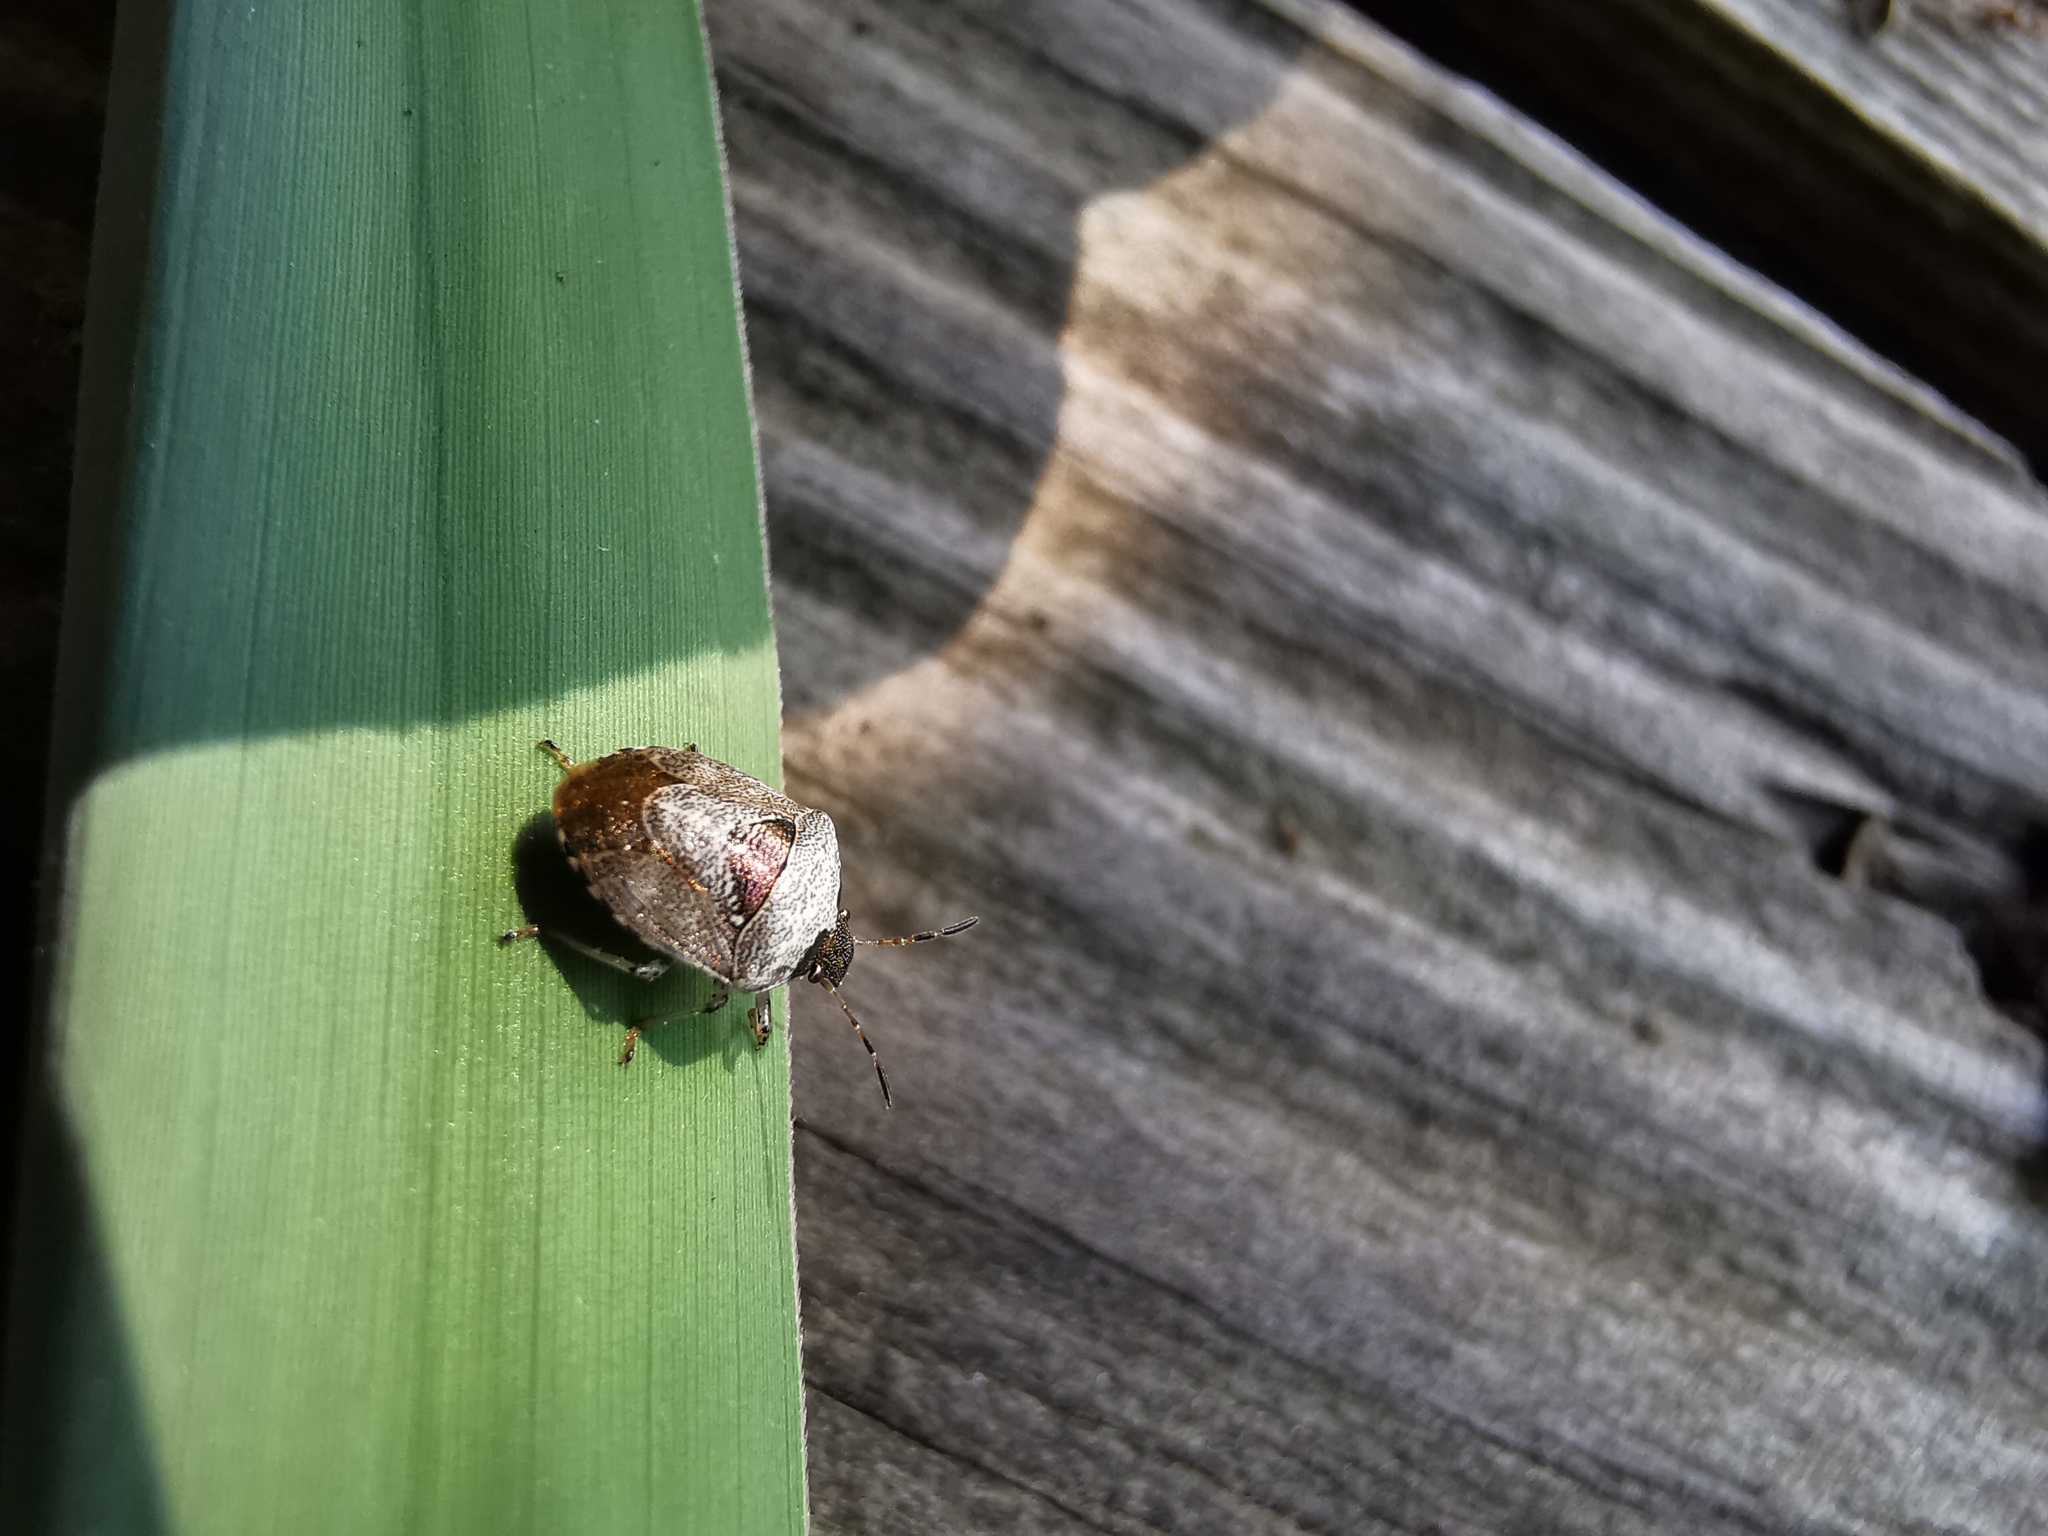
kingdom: Animalia
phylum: Arthropoda
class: Insecta
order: Hemiptera
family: Pentatomidae
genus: Eysarcoris
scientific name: Eysarcoris venustissimus
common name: Woundwort shieldbug
